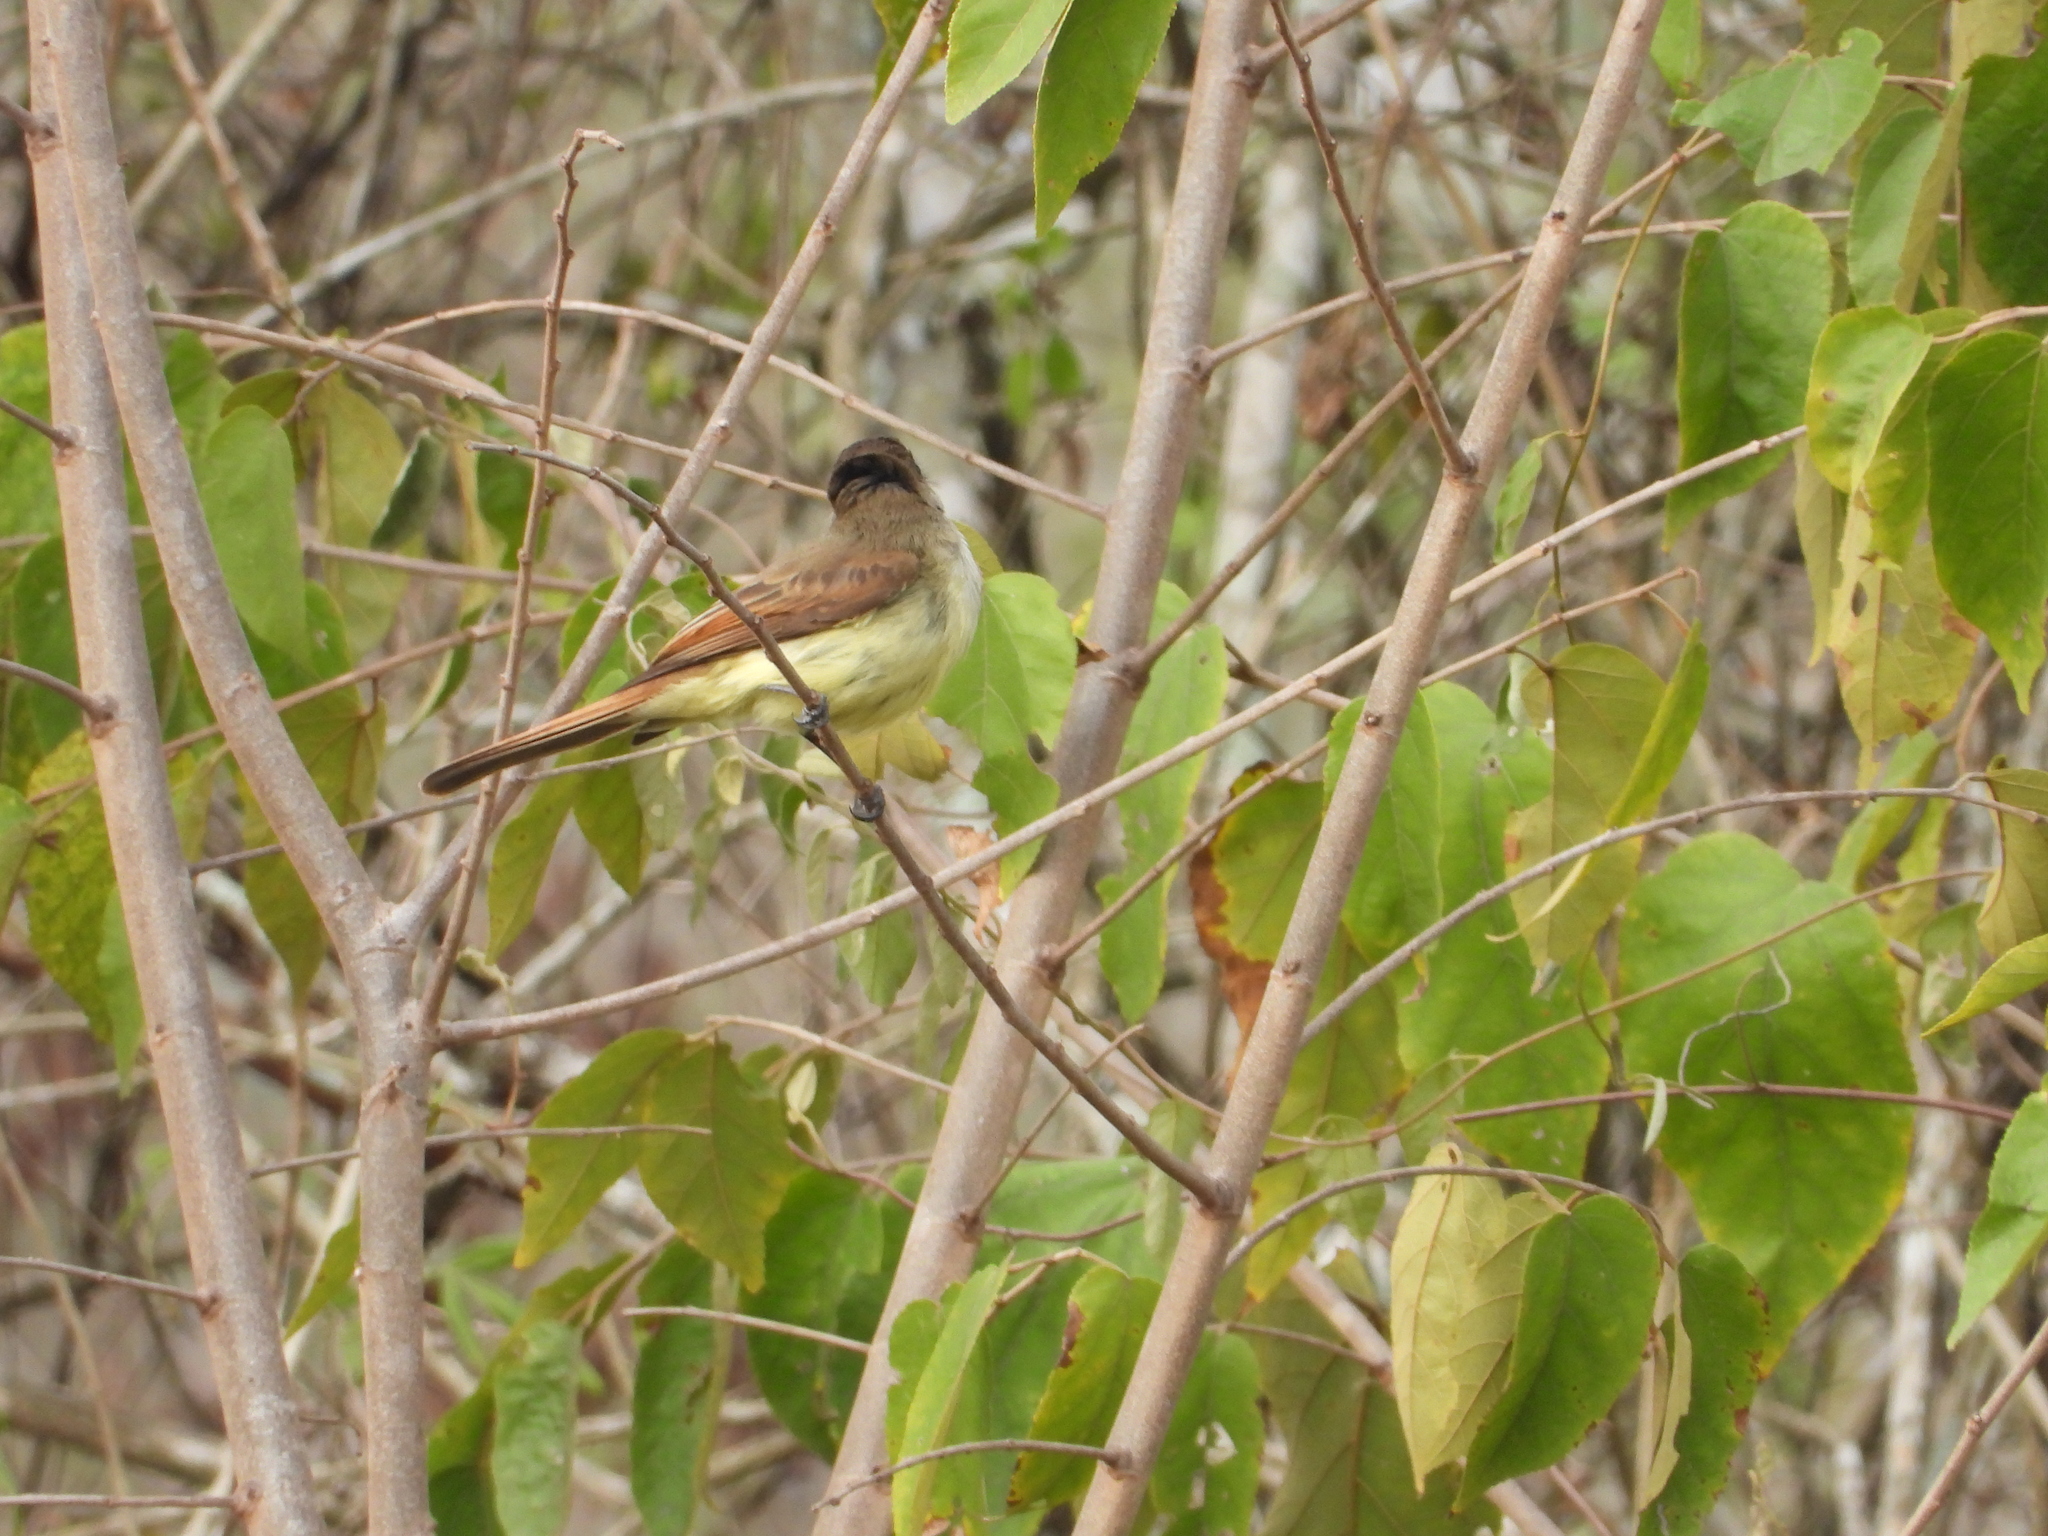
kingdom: Animalia
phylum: Chordata
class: Aves
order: Passeriformes
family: Tyrannidae
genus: Myiarchus
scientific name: Myiarchus tuberculifer
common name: Dusky-capped flycatcher
